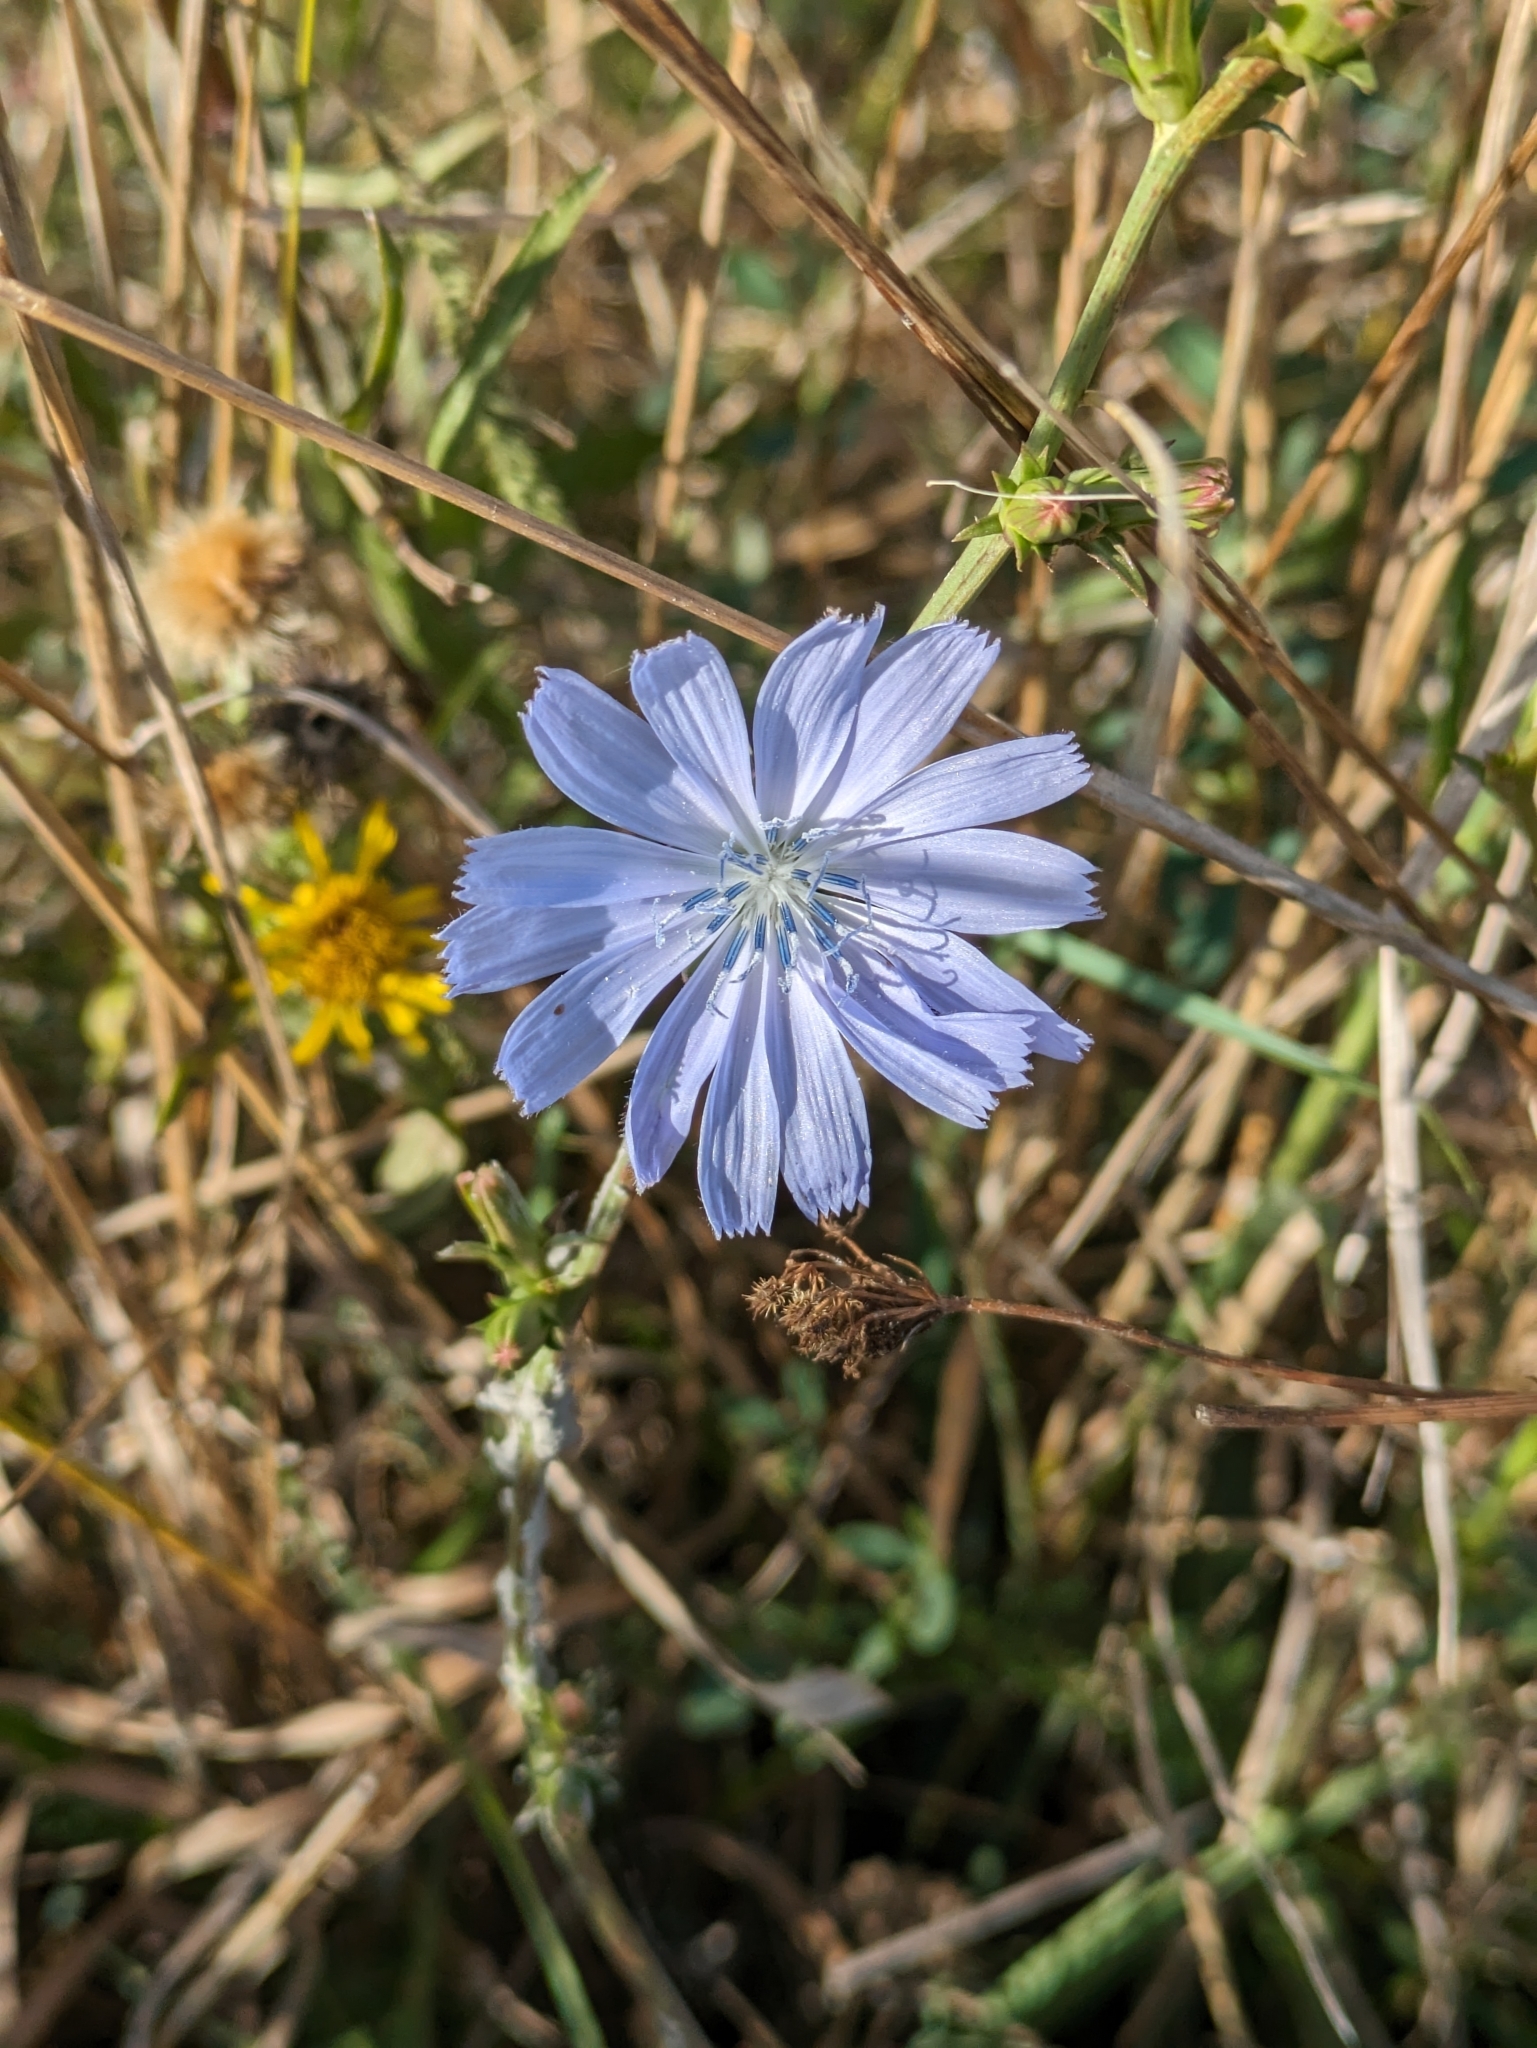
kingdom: Plantae
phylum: Tracheophyta
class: Magnoliopsida
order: Asterales
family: Asteraceae
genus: Cichorium
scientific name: Cichorium intybus
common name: Chicory
